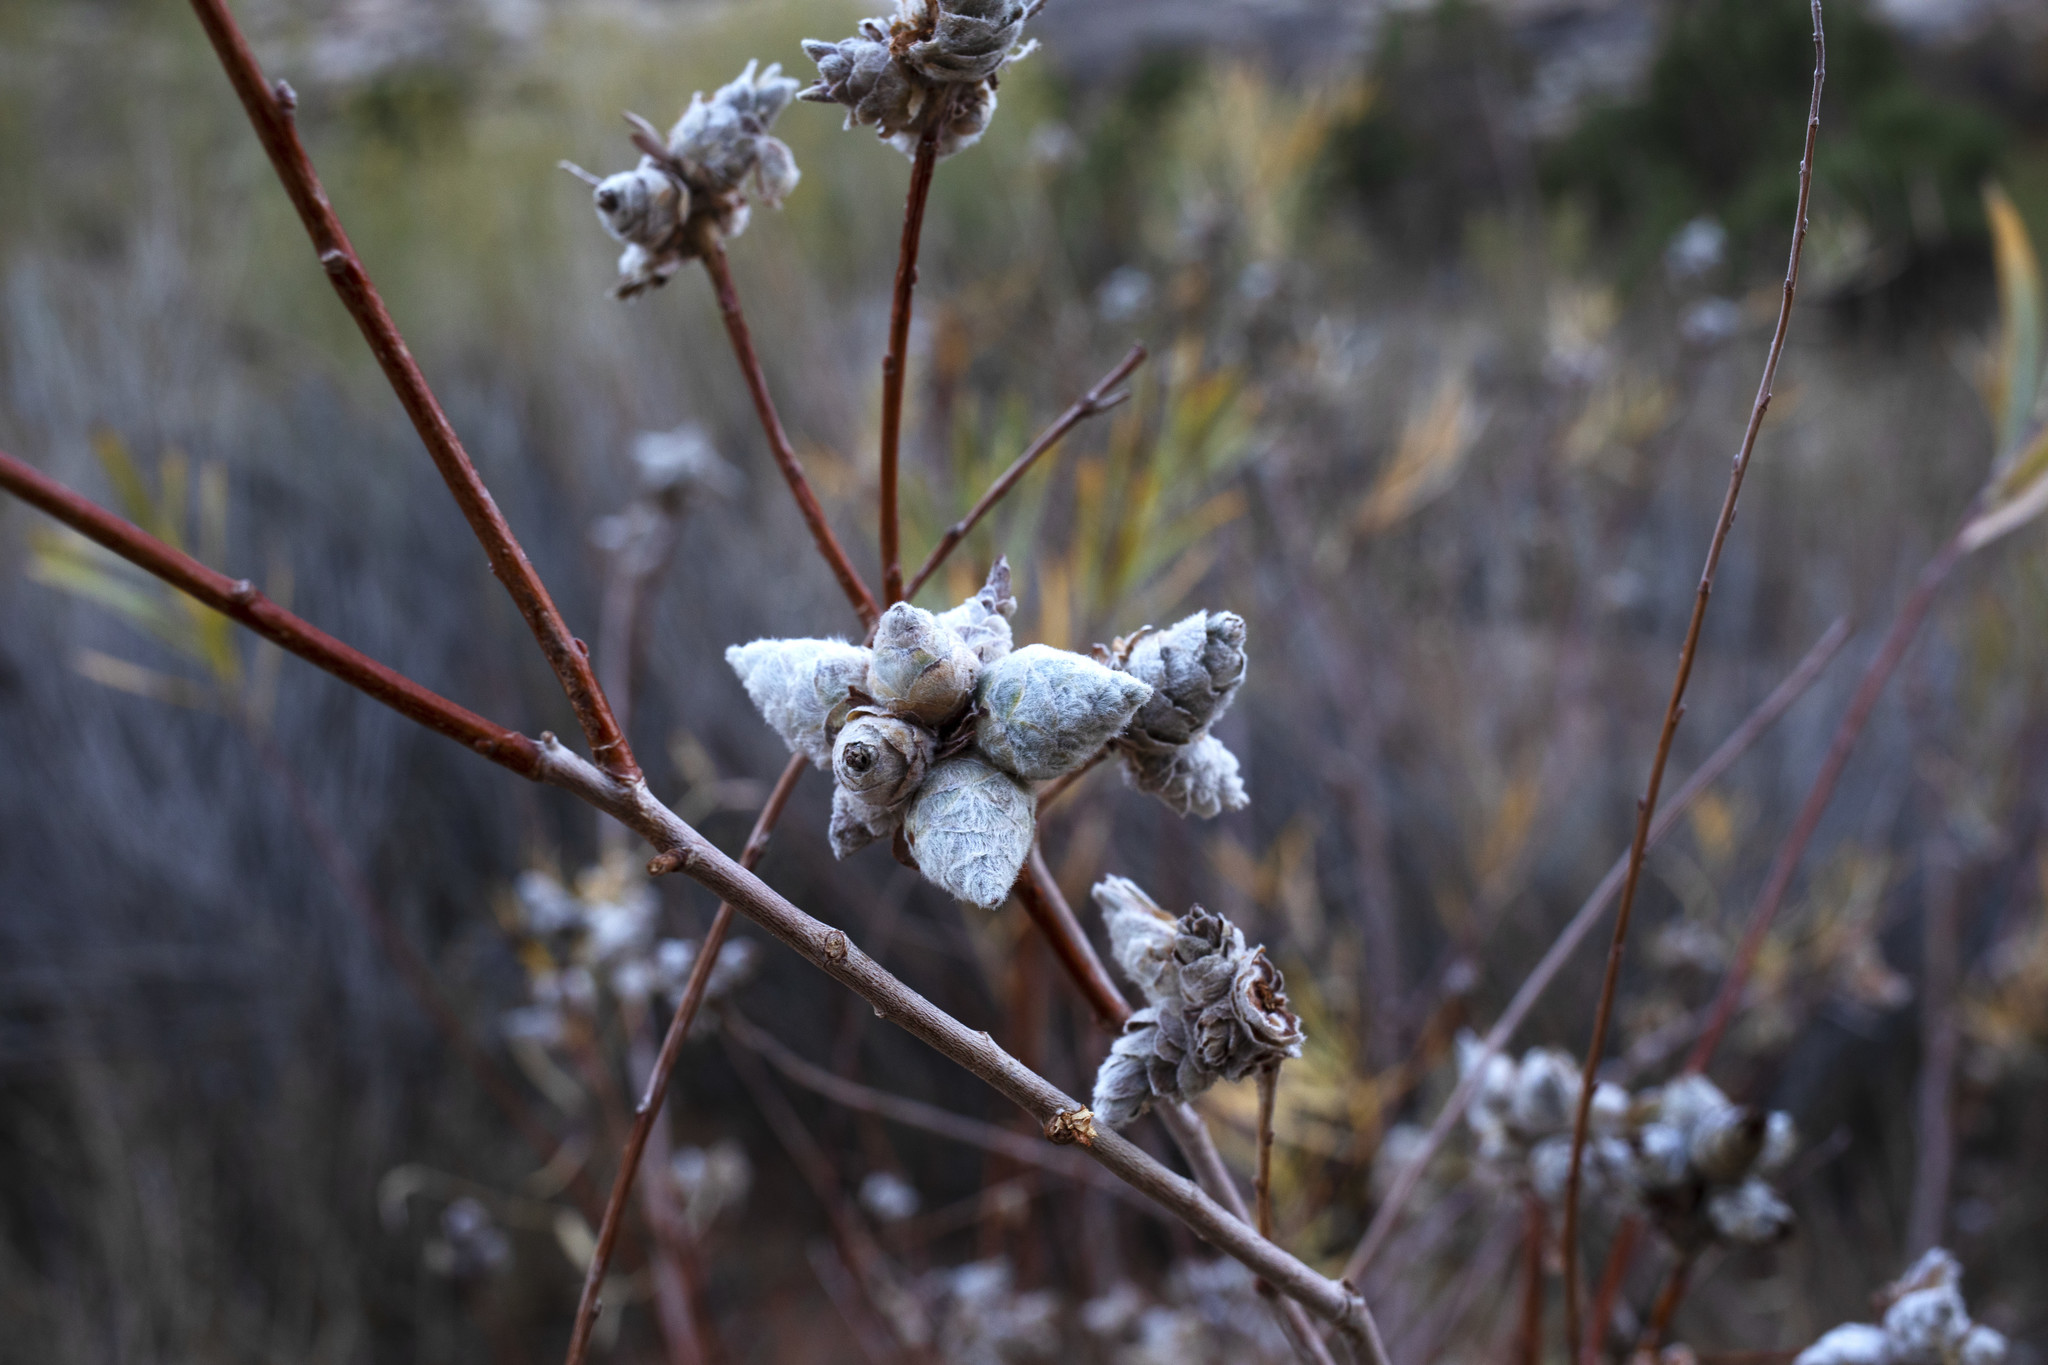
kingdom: Animalia
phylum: Arthropoda
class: Insecta
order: Diptera
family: Cecidomyiidae
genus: Rabdophaga
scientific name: Rabdophaga strobiloides
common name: Willow pinecone gall midge
